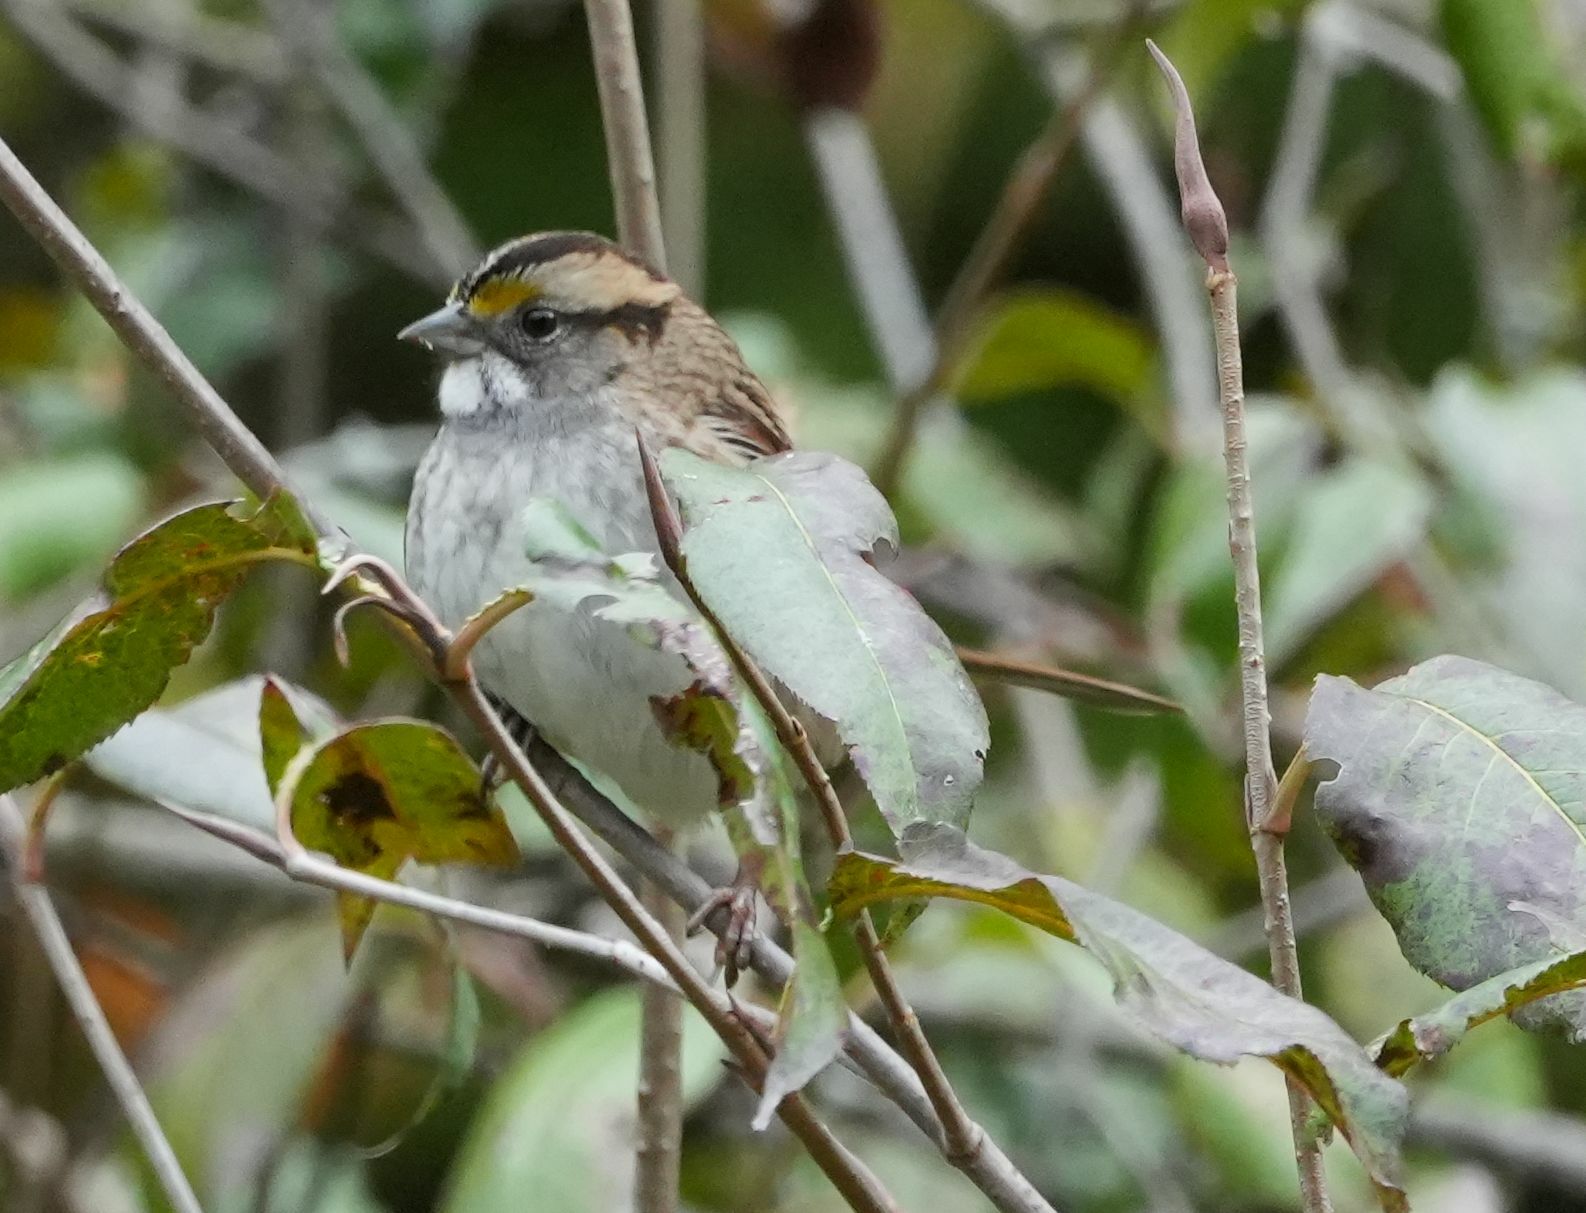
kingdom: Animalia
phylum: Chordata
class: Aves
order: Passeriformes
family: Passerellidae
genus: Zonotrichia
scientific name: Zonotrichia albicollis
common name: White-throated sparrow
